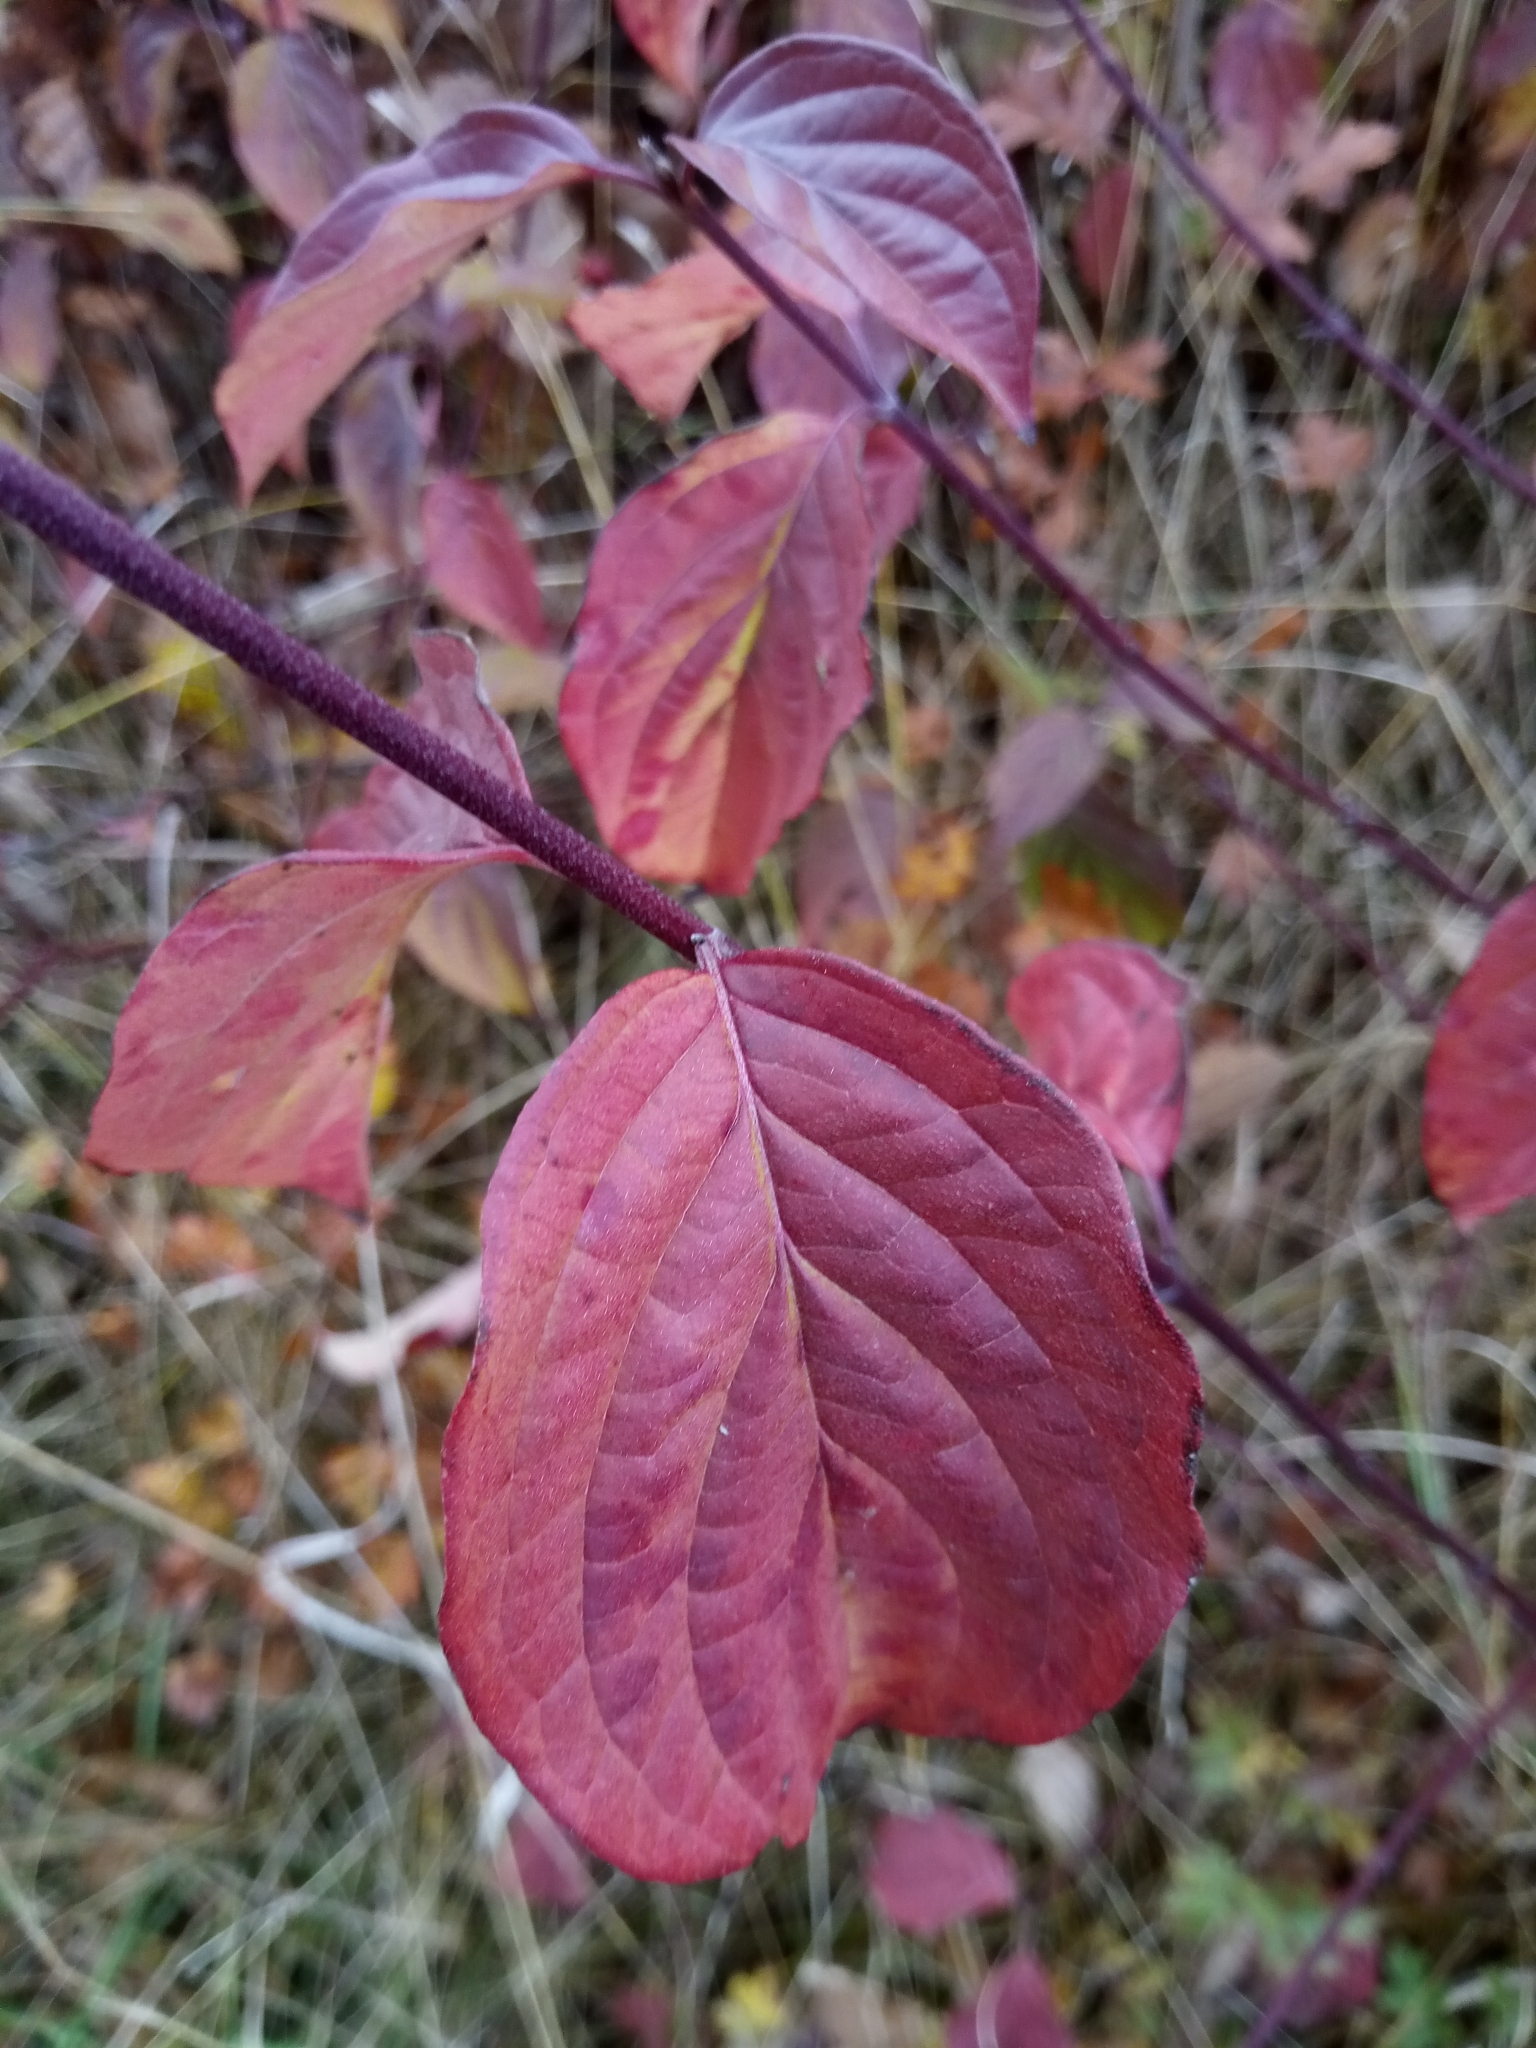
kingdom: Plantae
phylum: Tracheophyta
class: Magnoliopsida
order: Cornales
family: Cornaceae
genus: Cornus
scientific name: Cornus sanguinea
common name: Dogwood
